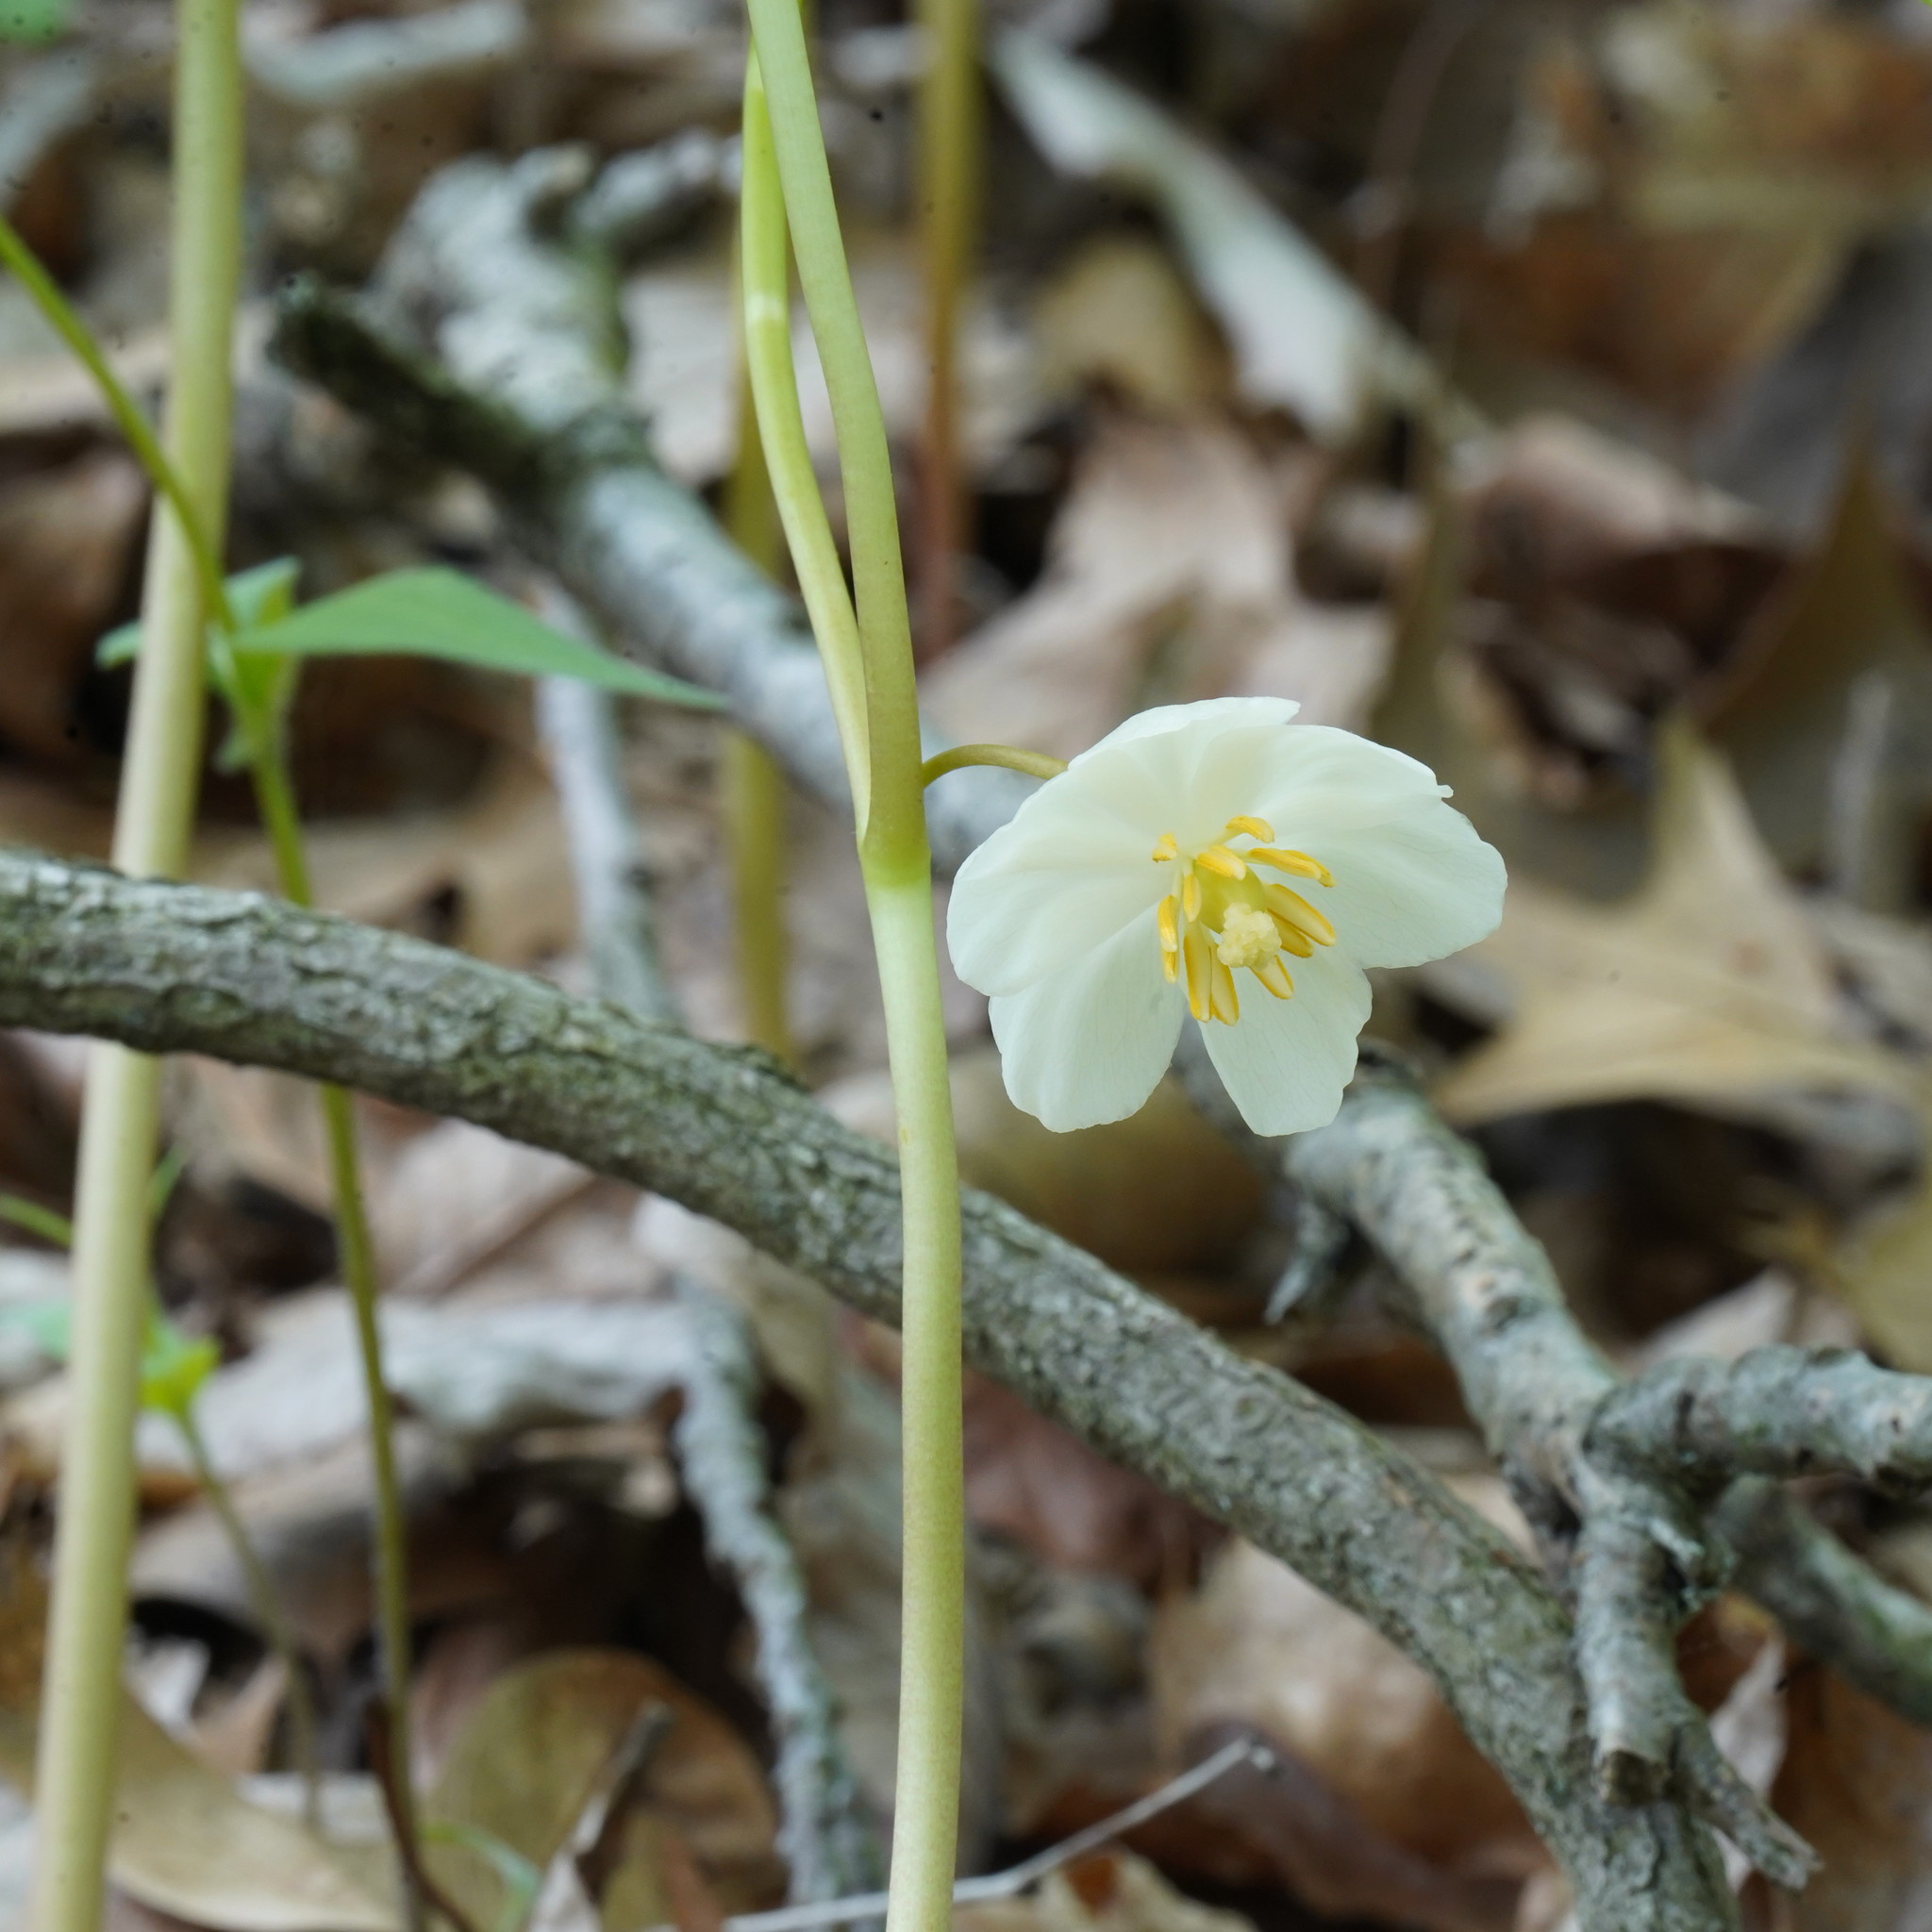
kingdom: Plantae
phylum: Tracheophyta
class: Magnoliopsida
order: Ranunculales
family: Berberidaceae
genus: Podophyllum
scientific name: Podophyllum peltatum
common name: Wild mandrake
